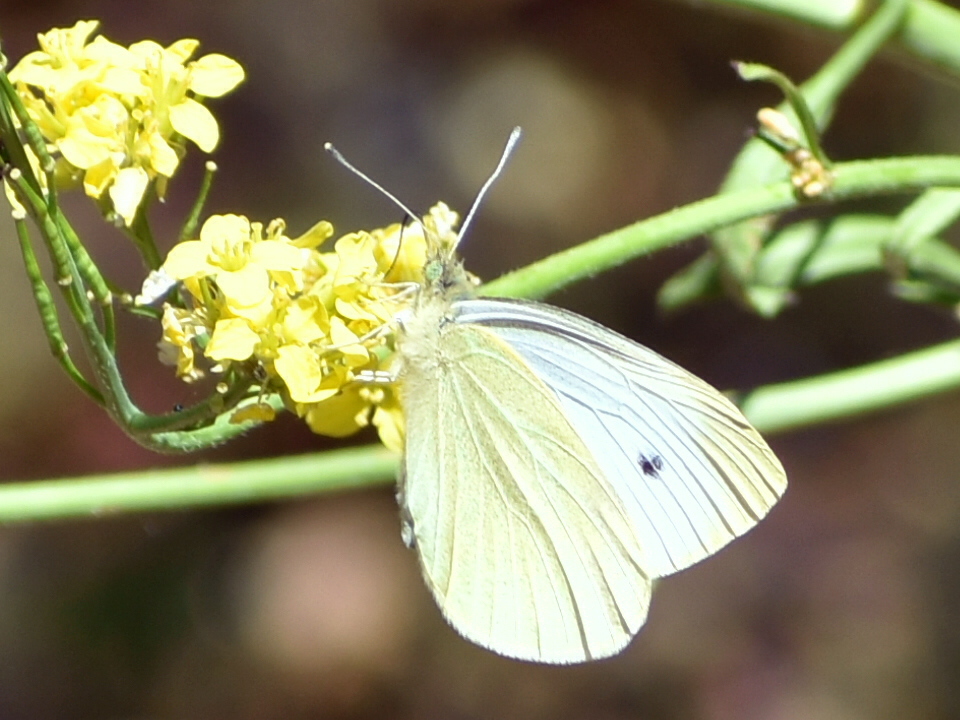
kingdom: Animalia
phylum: Arthropoda
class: Insecta
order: Lepidoptera
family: Pieridae
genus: Pieris
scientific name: Pieris rapae
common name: Small white
